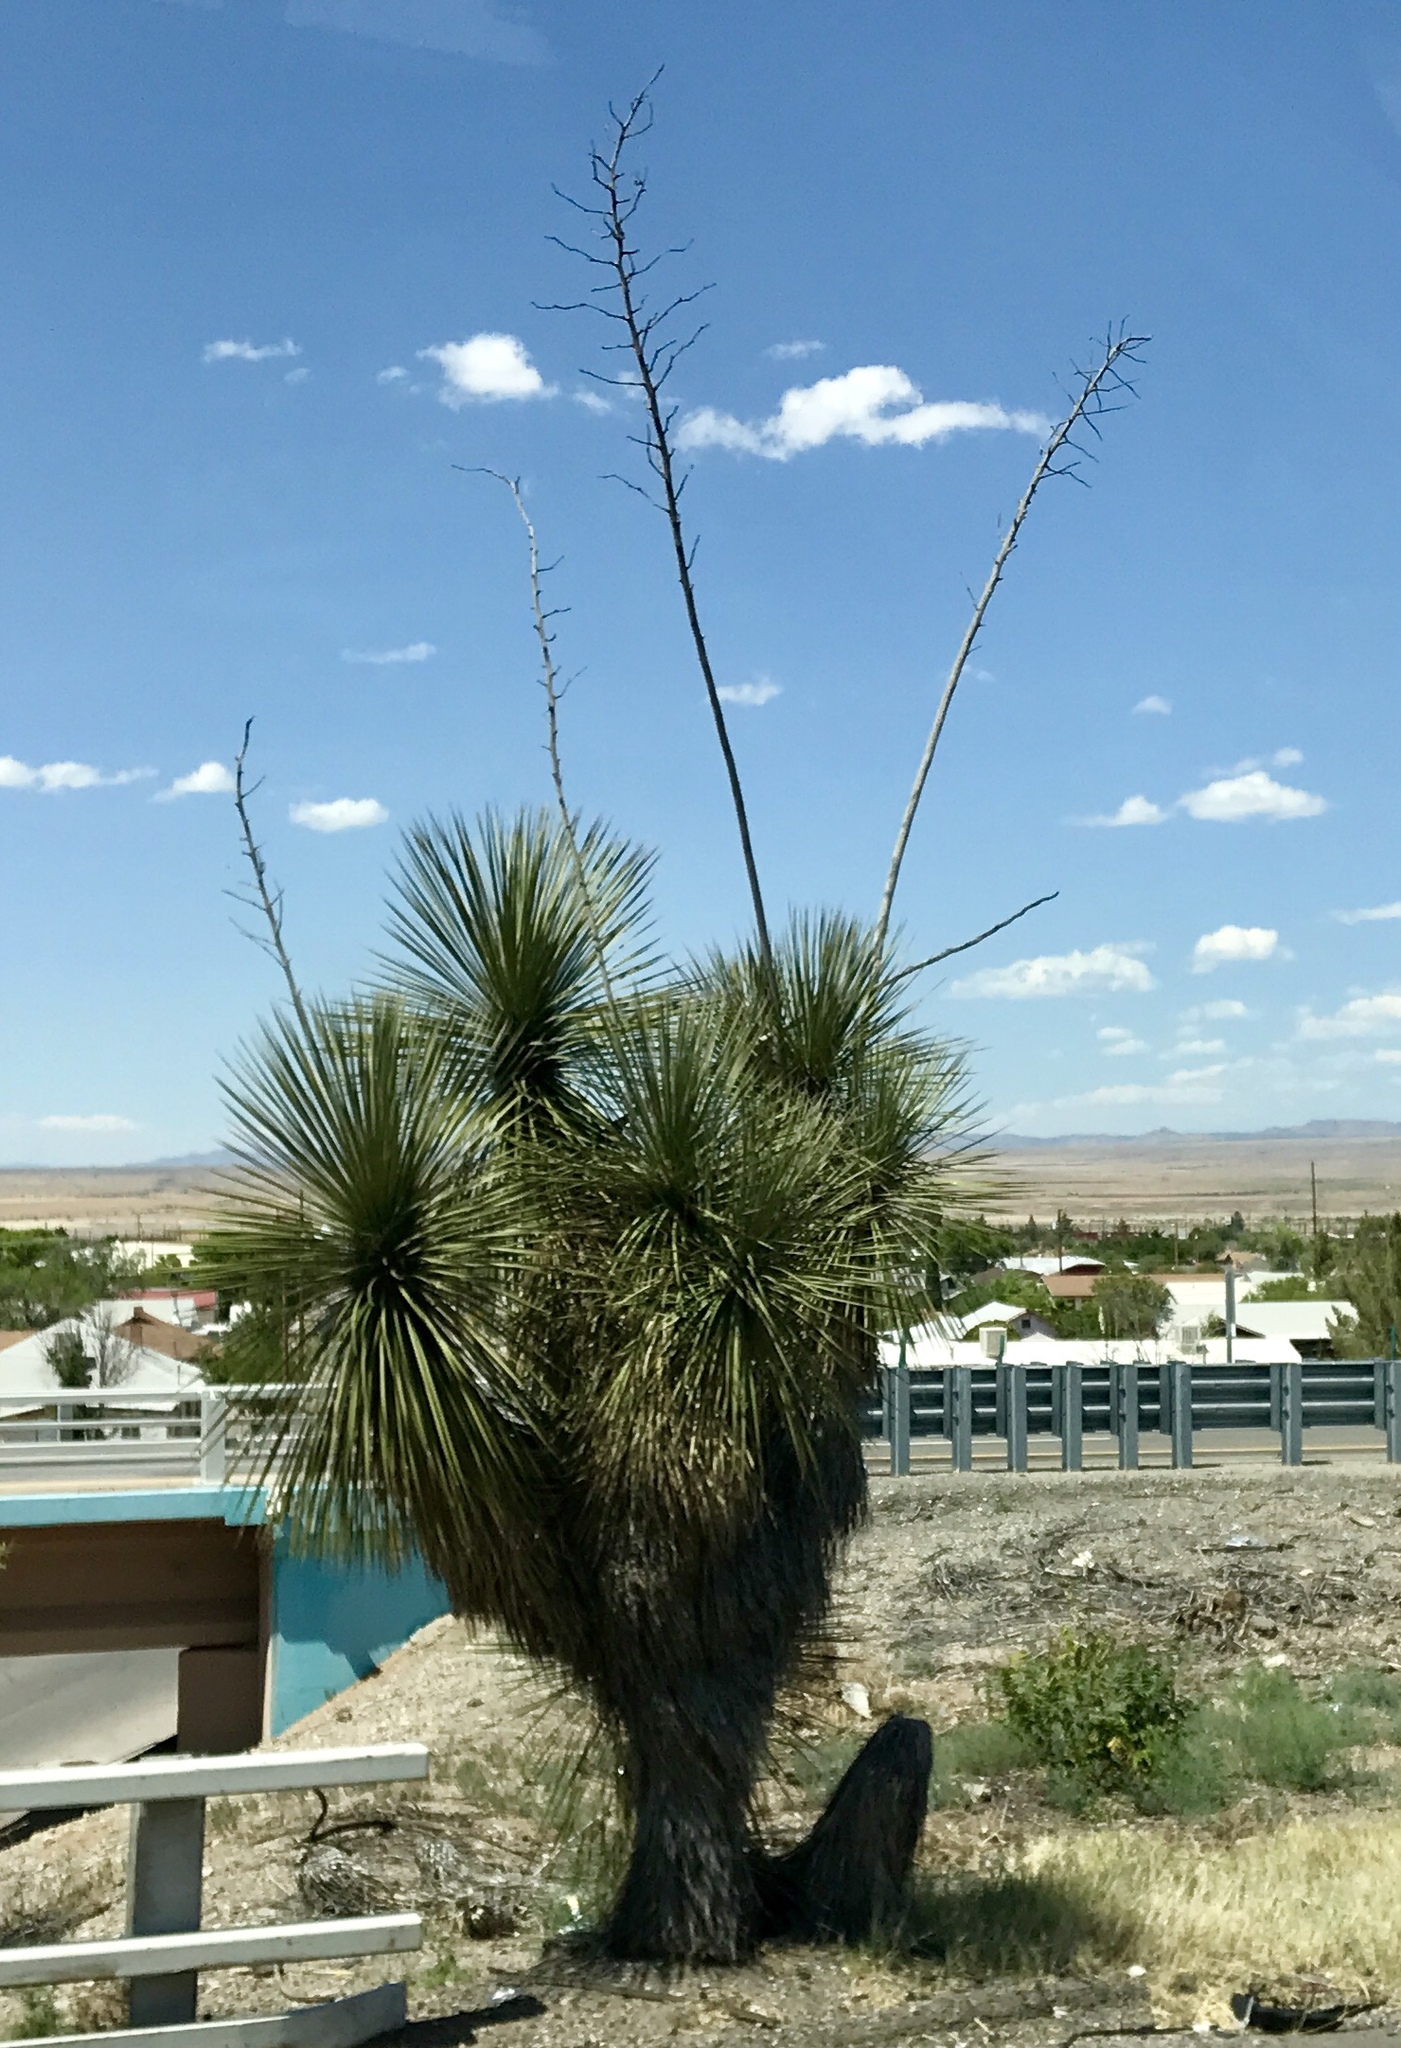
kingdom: Plantae
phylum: Tracheophyta
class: Liliopsida
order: Asparagales
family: Asparagaceae
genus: Yucca
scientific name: Yucca elata
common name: Palmella
